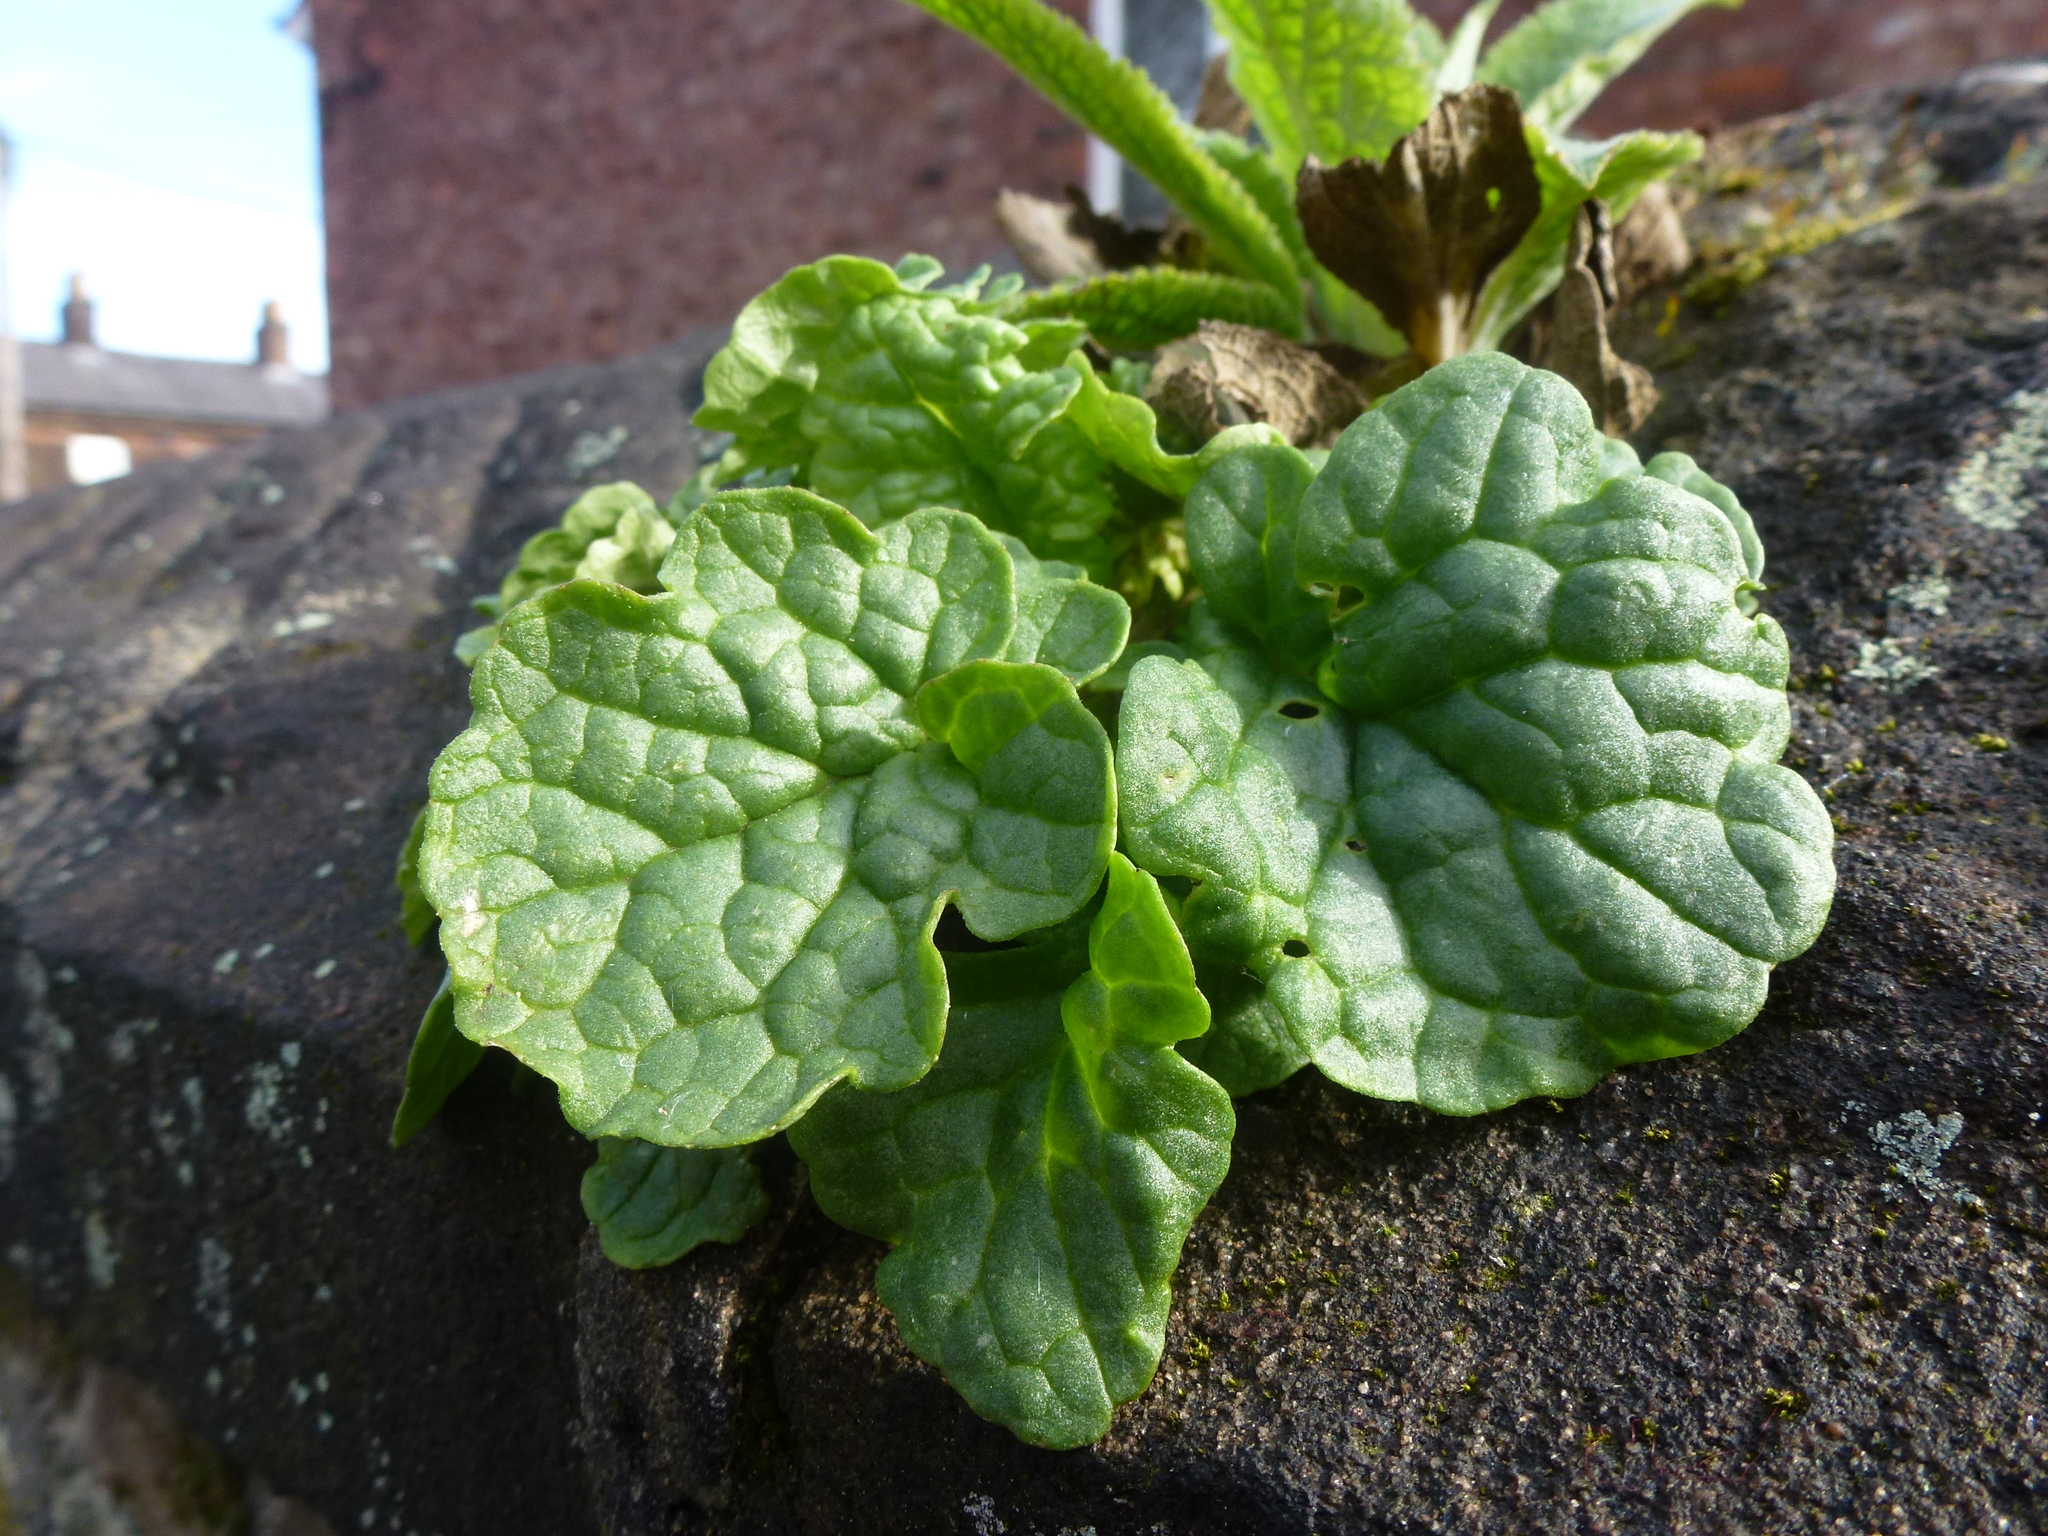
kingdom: Plantae
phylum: Tracheophyta
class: Magnoliopsida
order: Asterales
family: Asteraceae
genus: Jacobaea
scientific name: Jacobaea vulgaris
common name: Stinking willie
